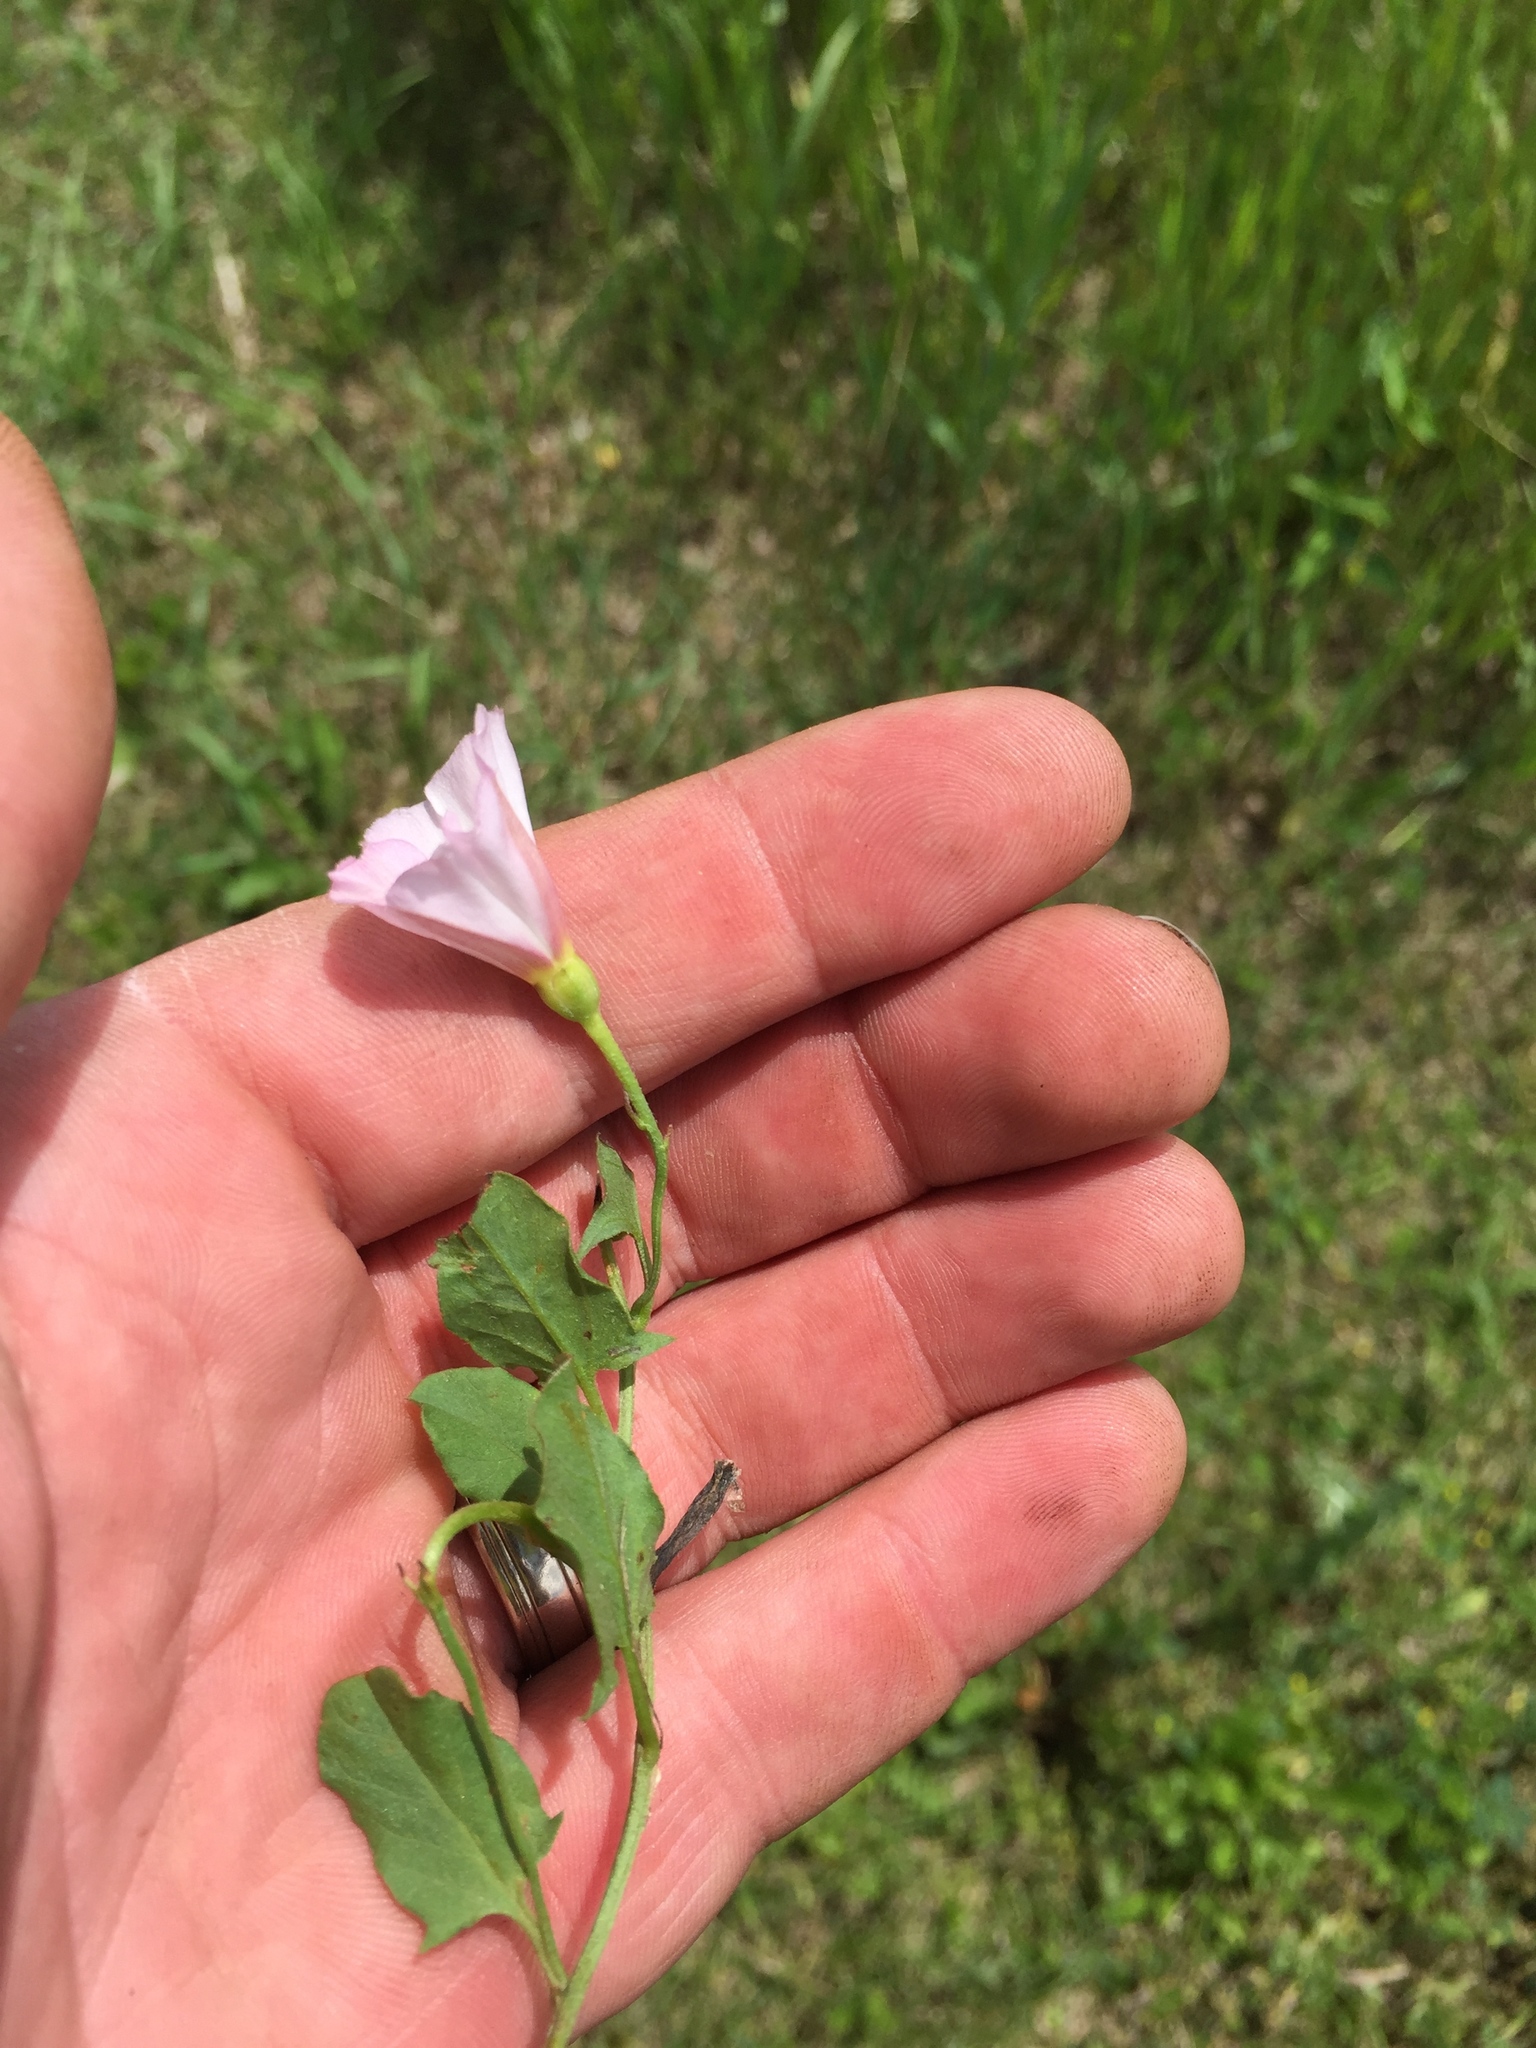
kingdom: Plantae
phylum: Tracheophyta
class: Magnoliopsida
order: Solanales
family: Convolvulaceae
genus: Convolvulus
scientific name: Convolvulus arvensis
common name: Field bindweed
